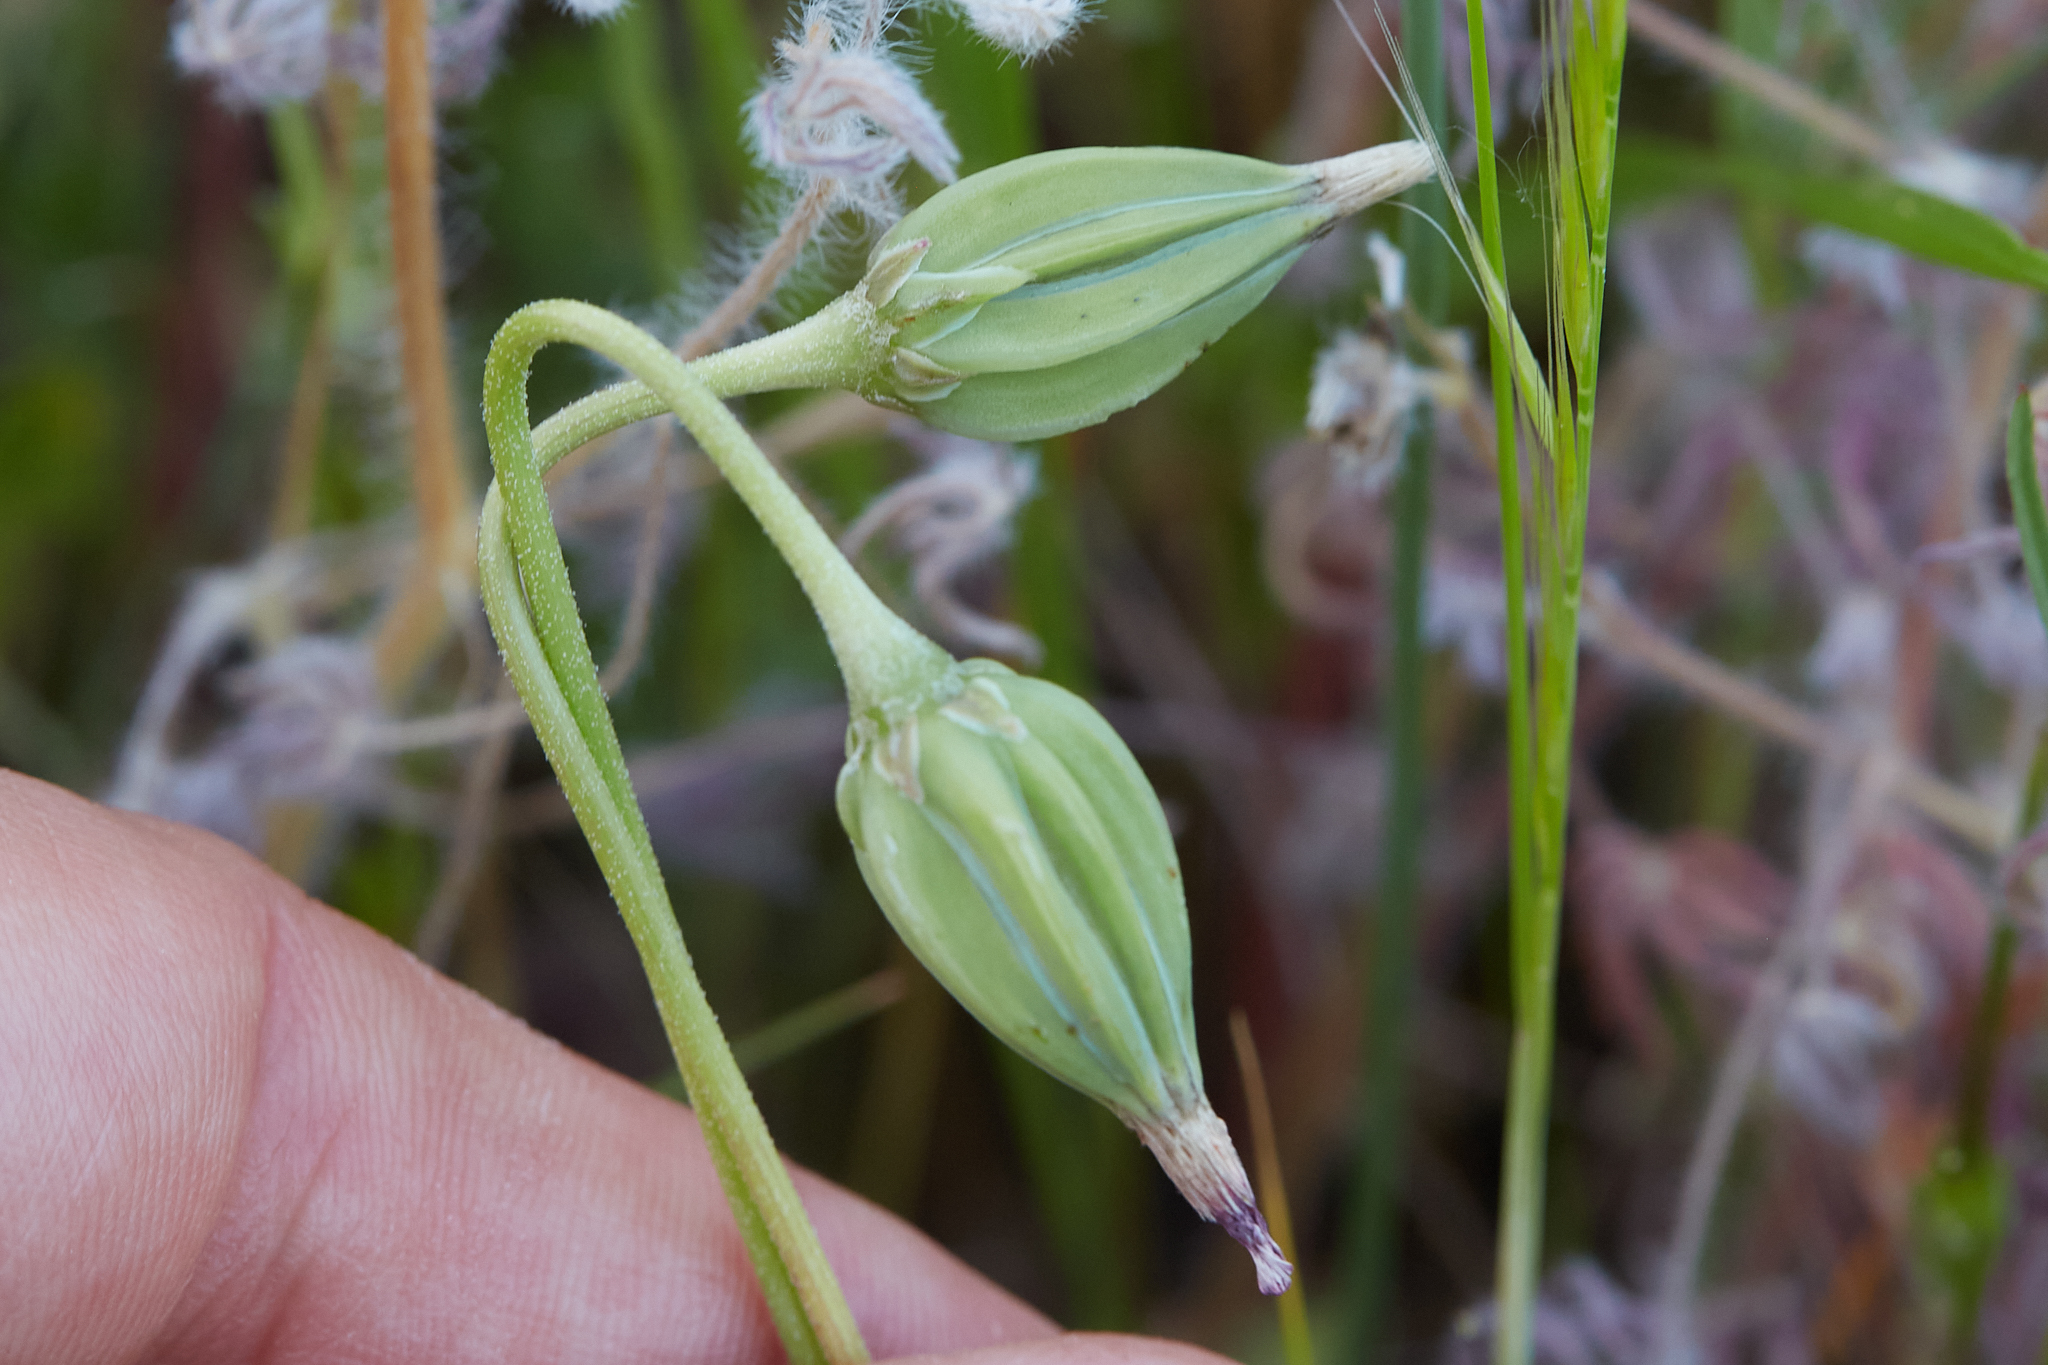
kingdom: Plantae
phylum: Tracheophyta
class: Magnoliopsida
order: Asterales
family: Asteraceae
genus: Microseris
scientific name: Microseris douglasii
